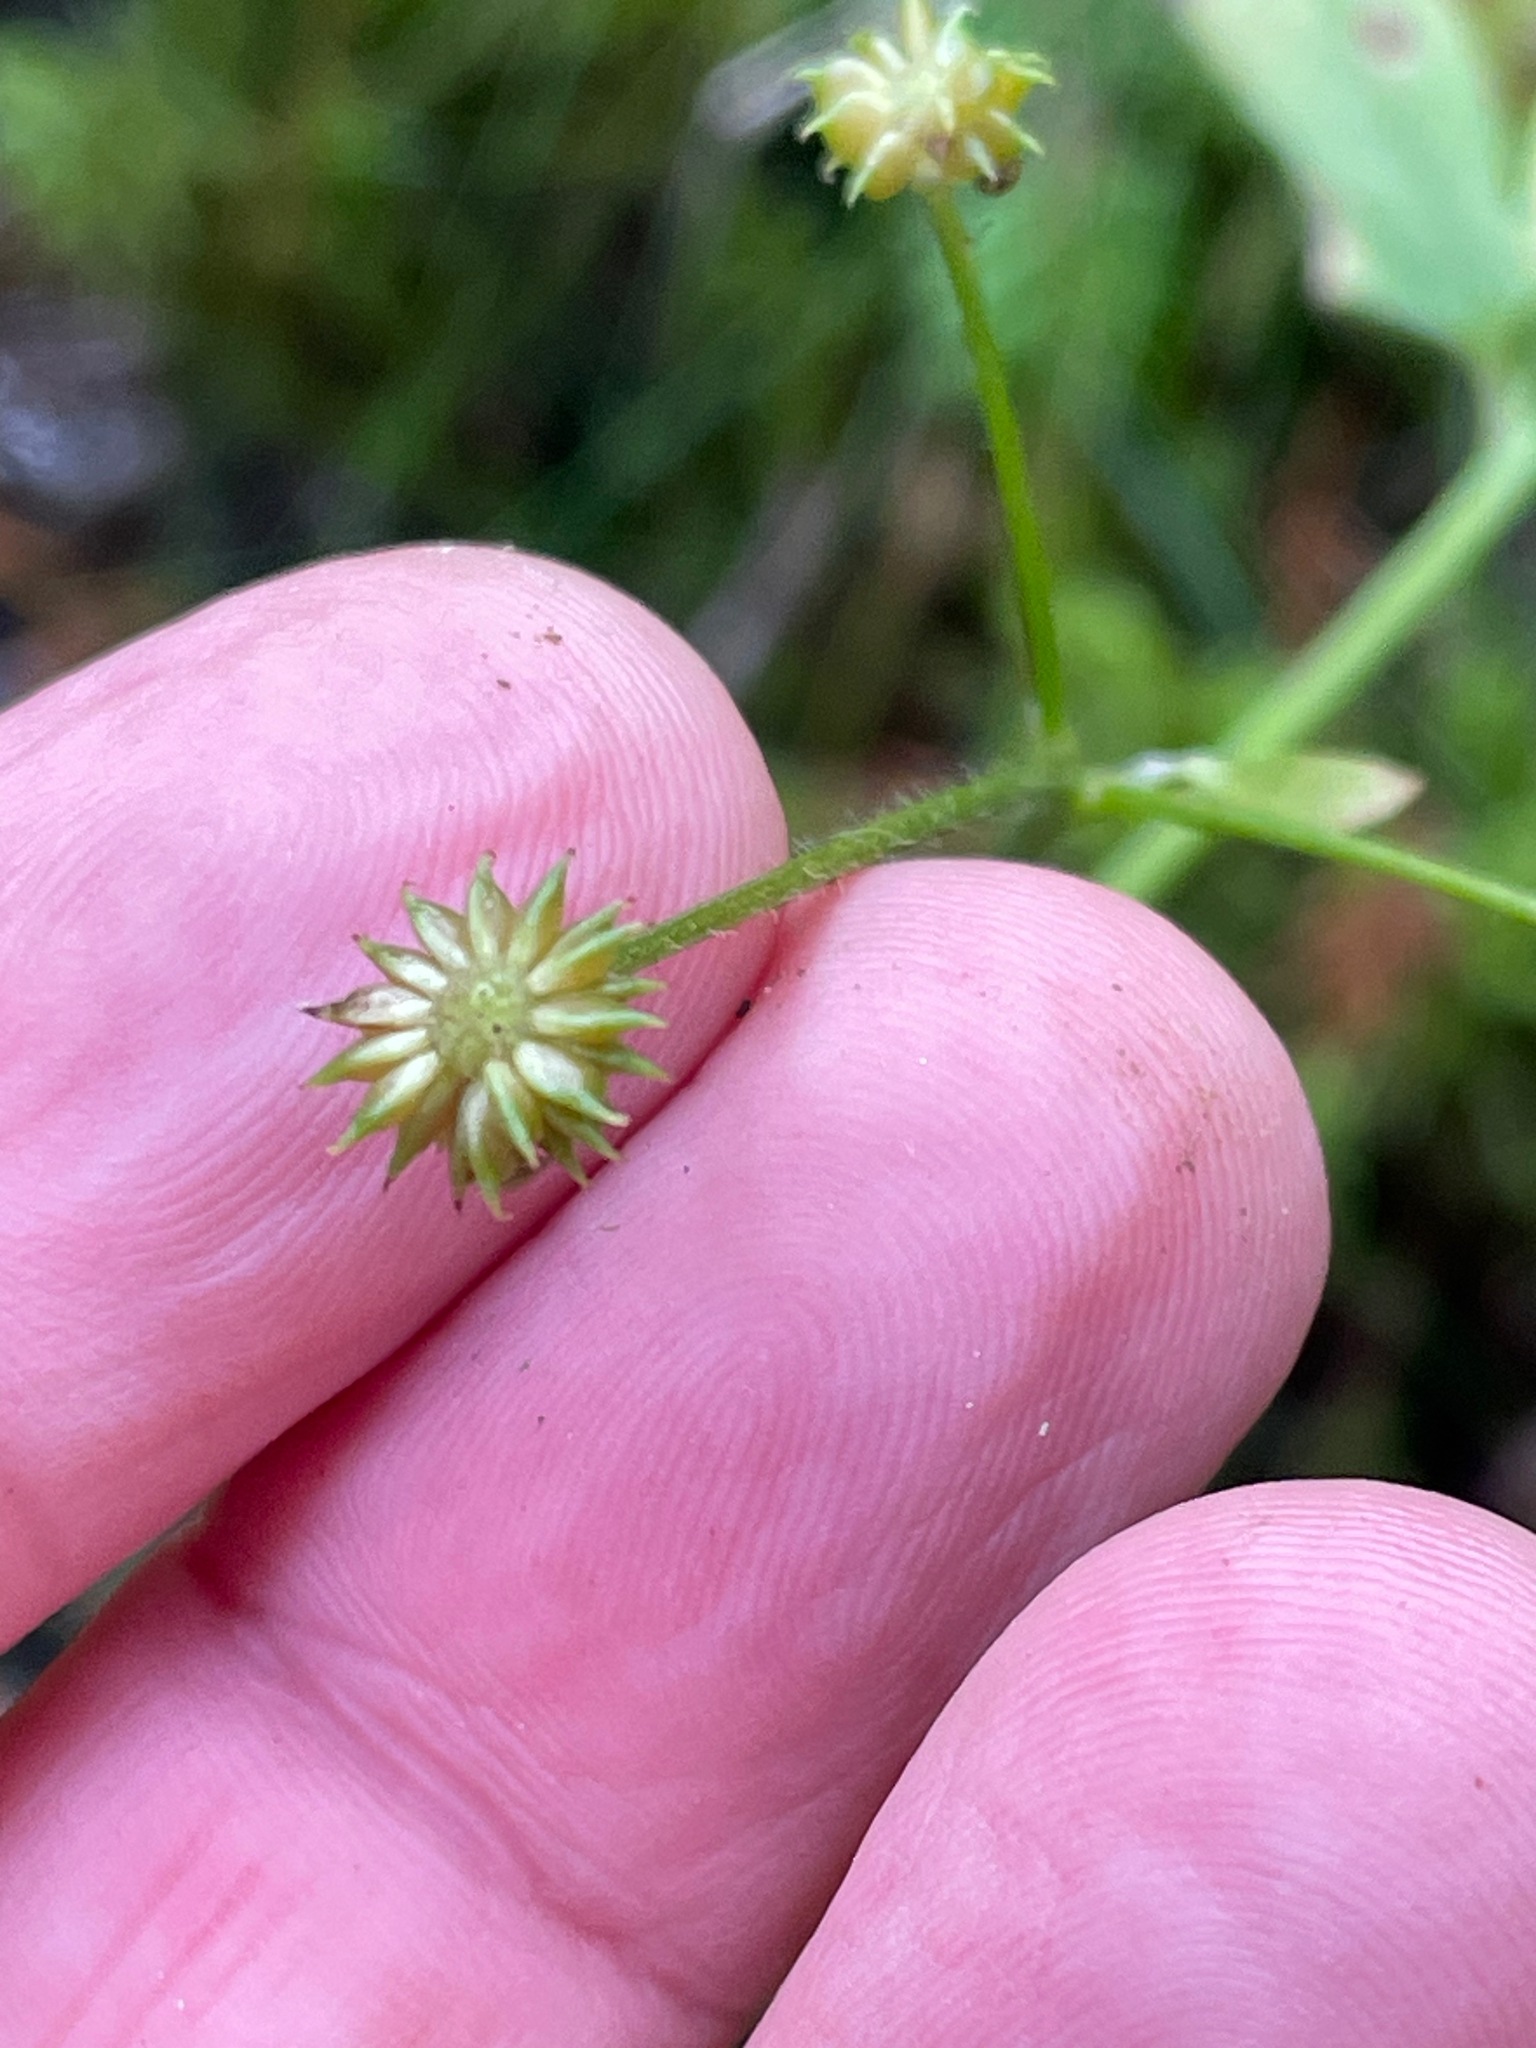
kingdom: Plantae
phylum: Tracheophyta
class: Magnoliopsida
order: Ranunculales
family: Ranunculaceae
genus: Ranunculus
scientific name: Ranunculus recurvatus
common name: Blisterwort
